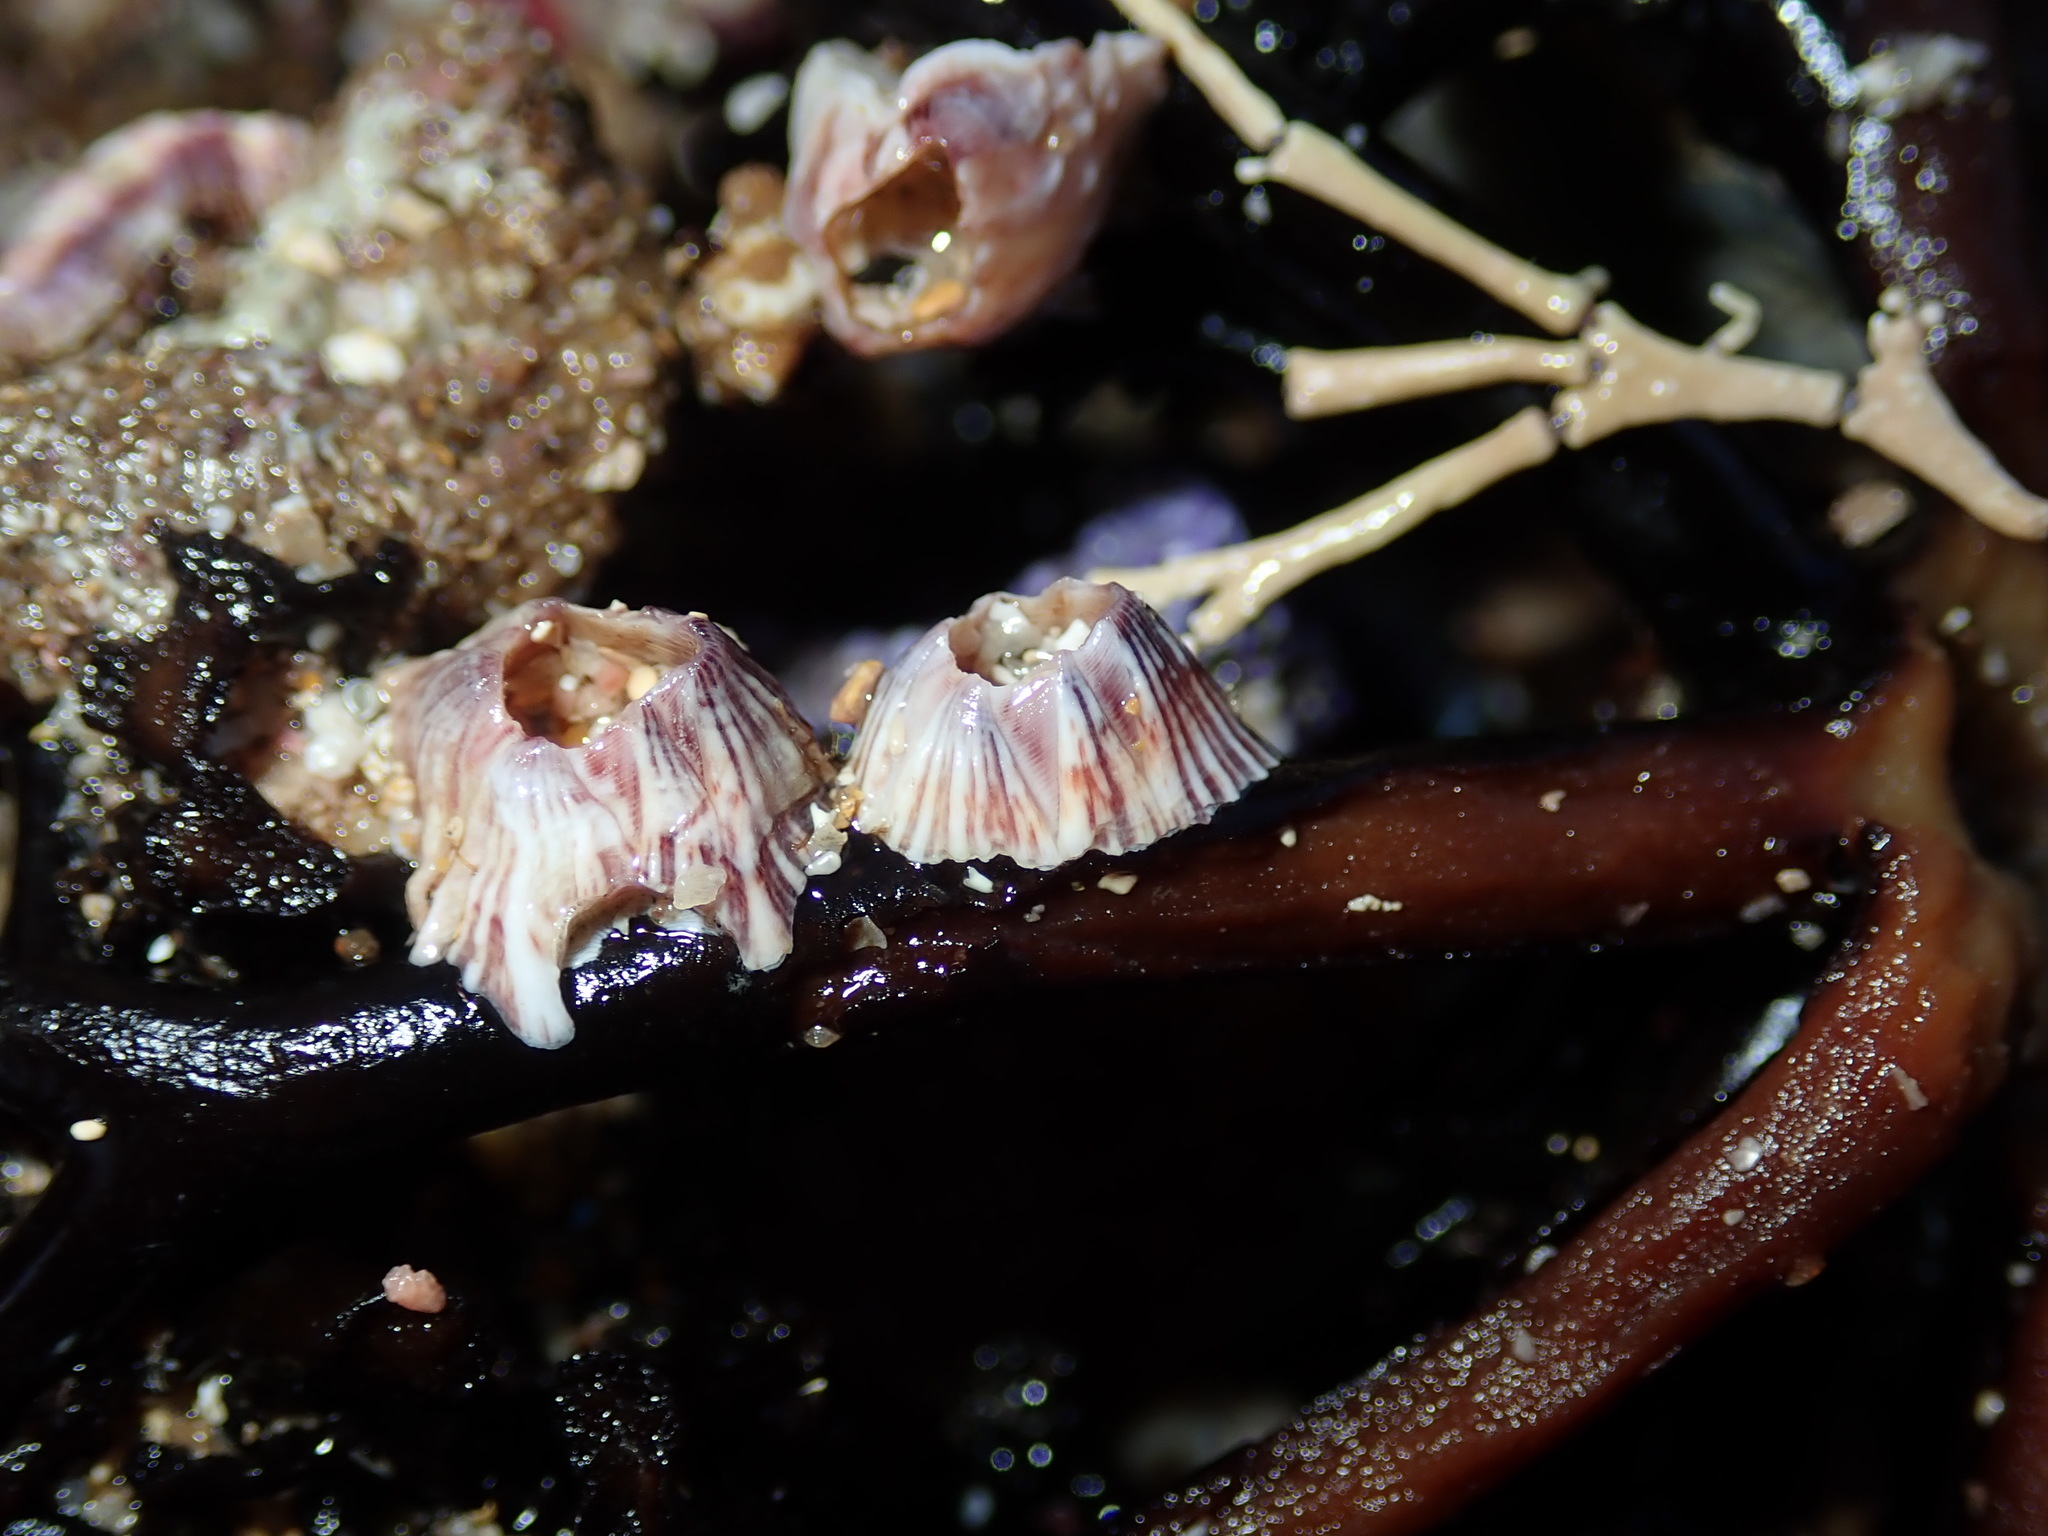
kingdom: Animalia
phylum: Arthropoda
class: Maxillopoda
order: Sessilia
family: Balanidae
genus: Balanus
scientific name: Balanus trigonus
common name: Triangle barnacle
